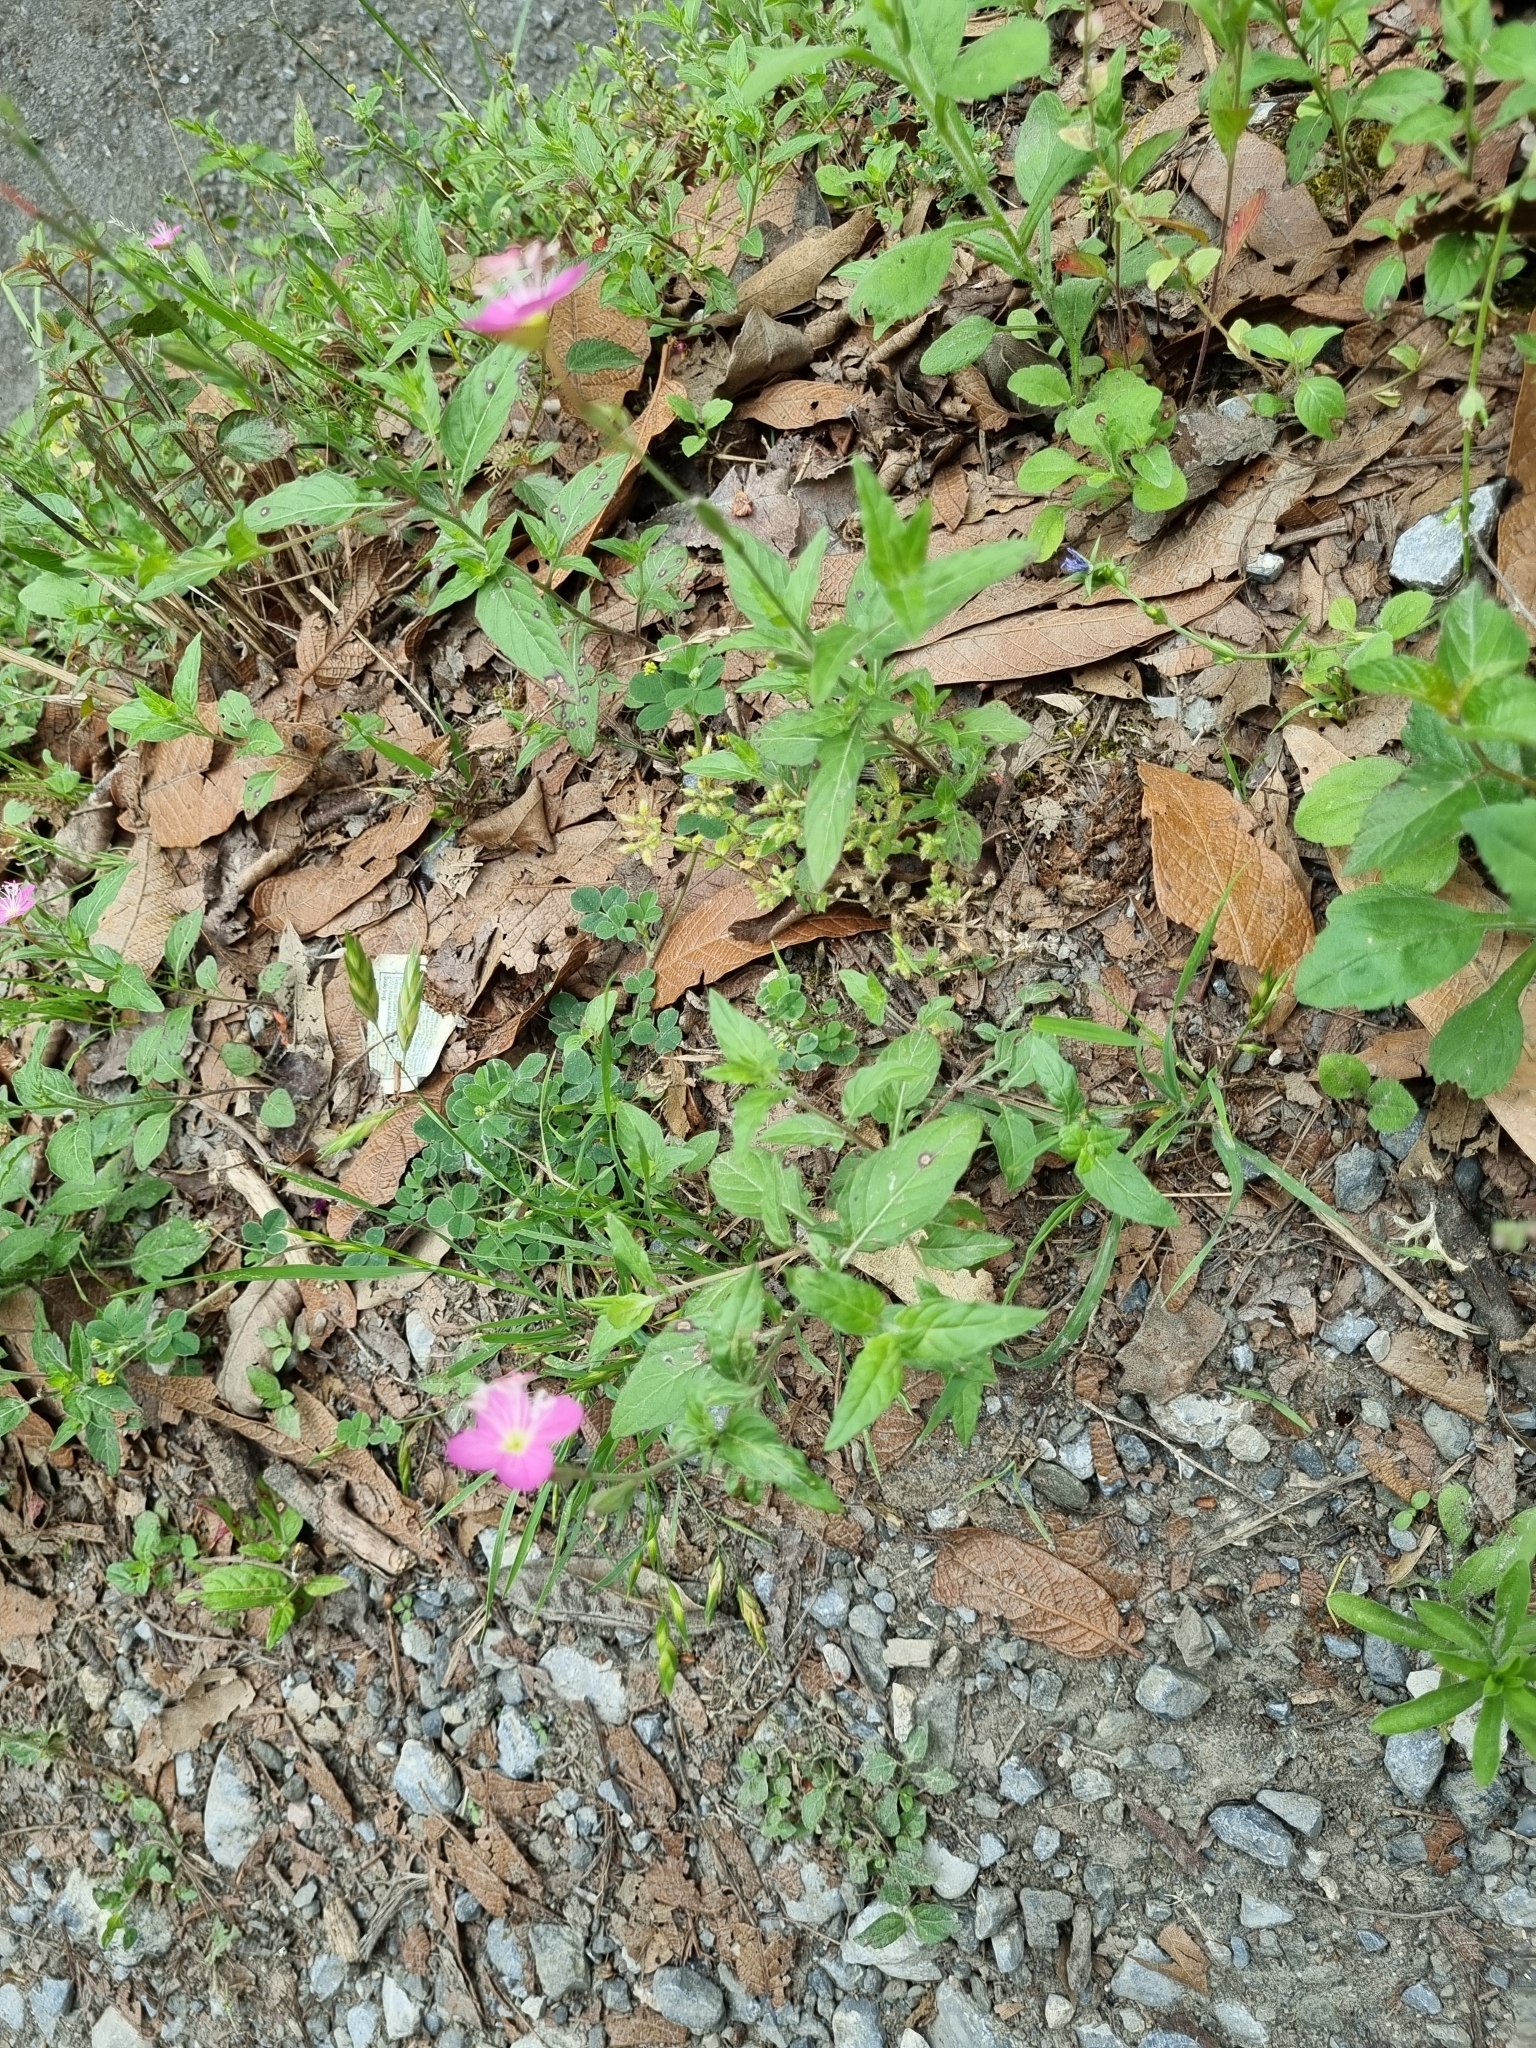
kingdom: Plantae
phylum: Tracheophyta
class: Magnoliopsida
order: Myrtales
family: Onagraceae
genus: Oenothera
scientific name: Oenothera rosea
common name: Rosy evening-primrose
